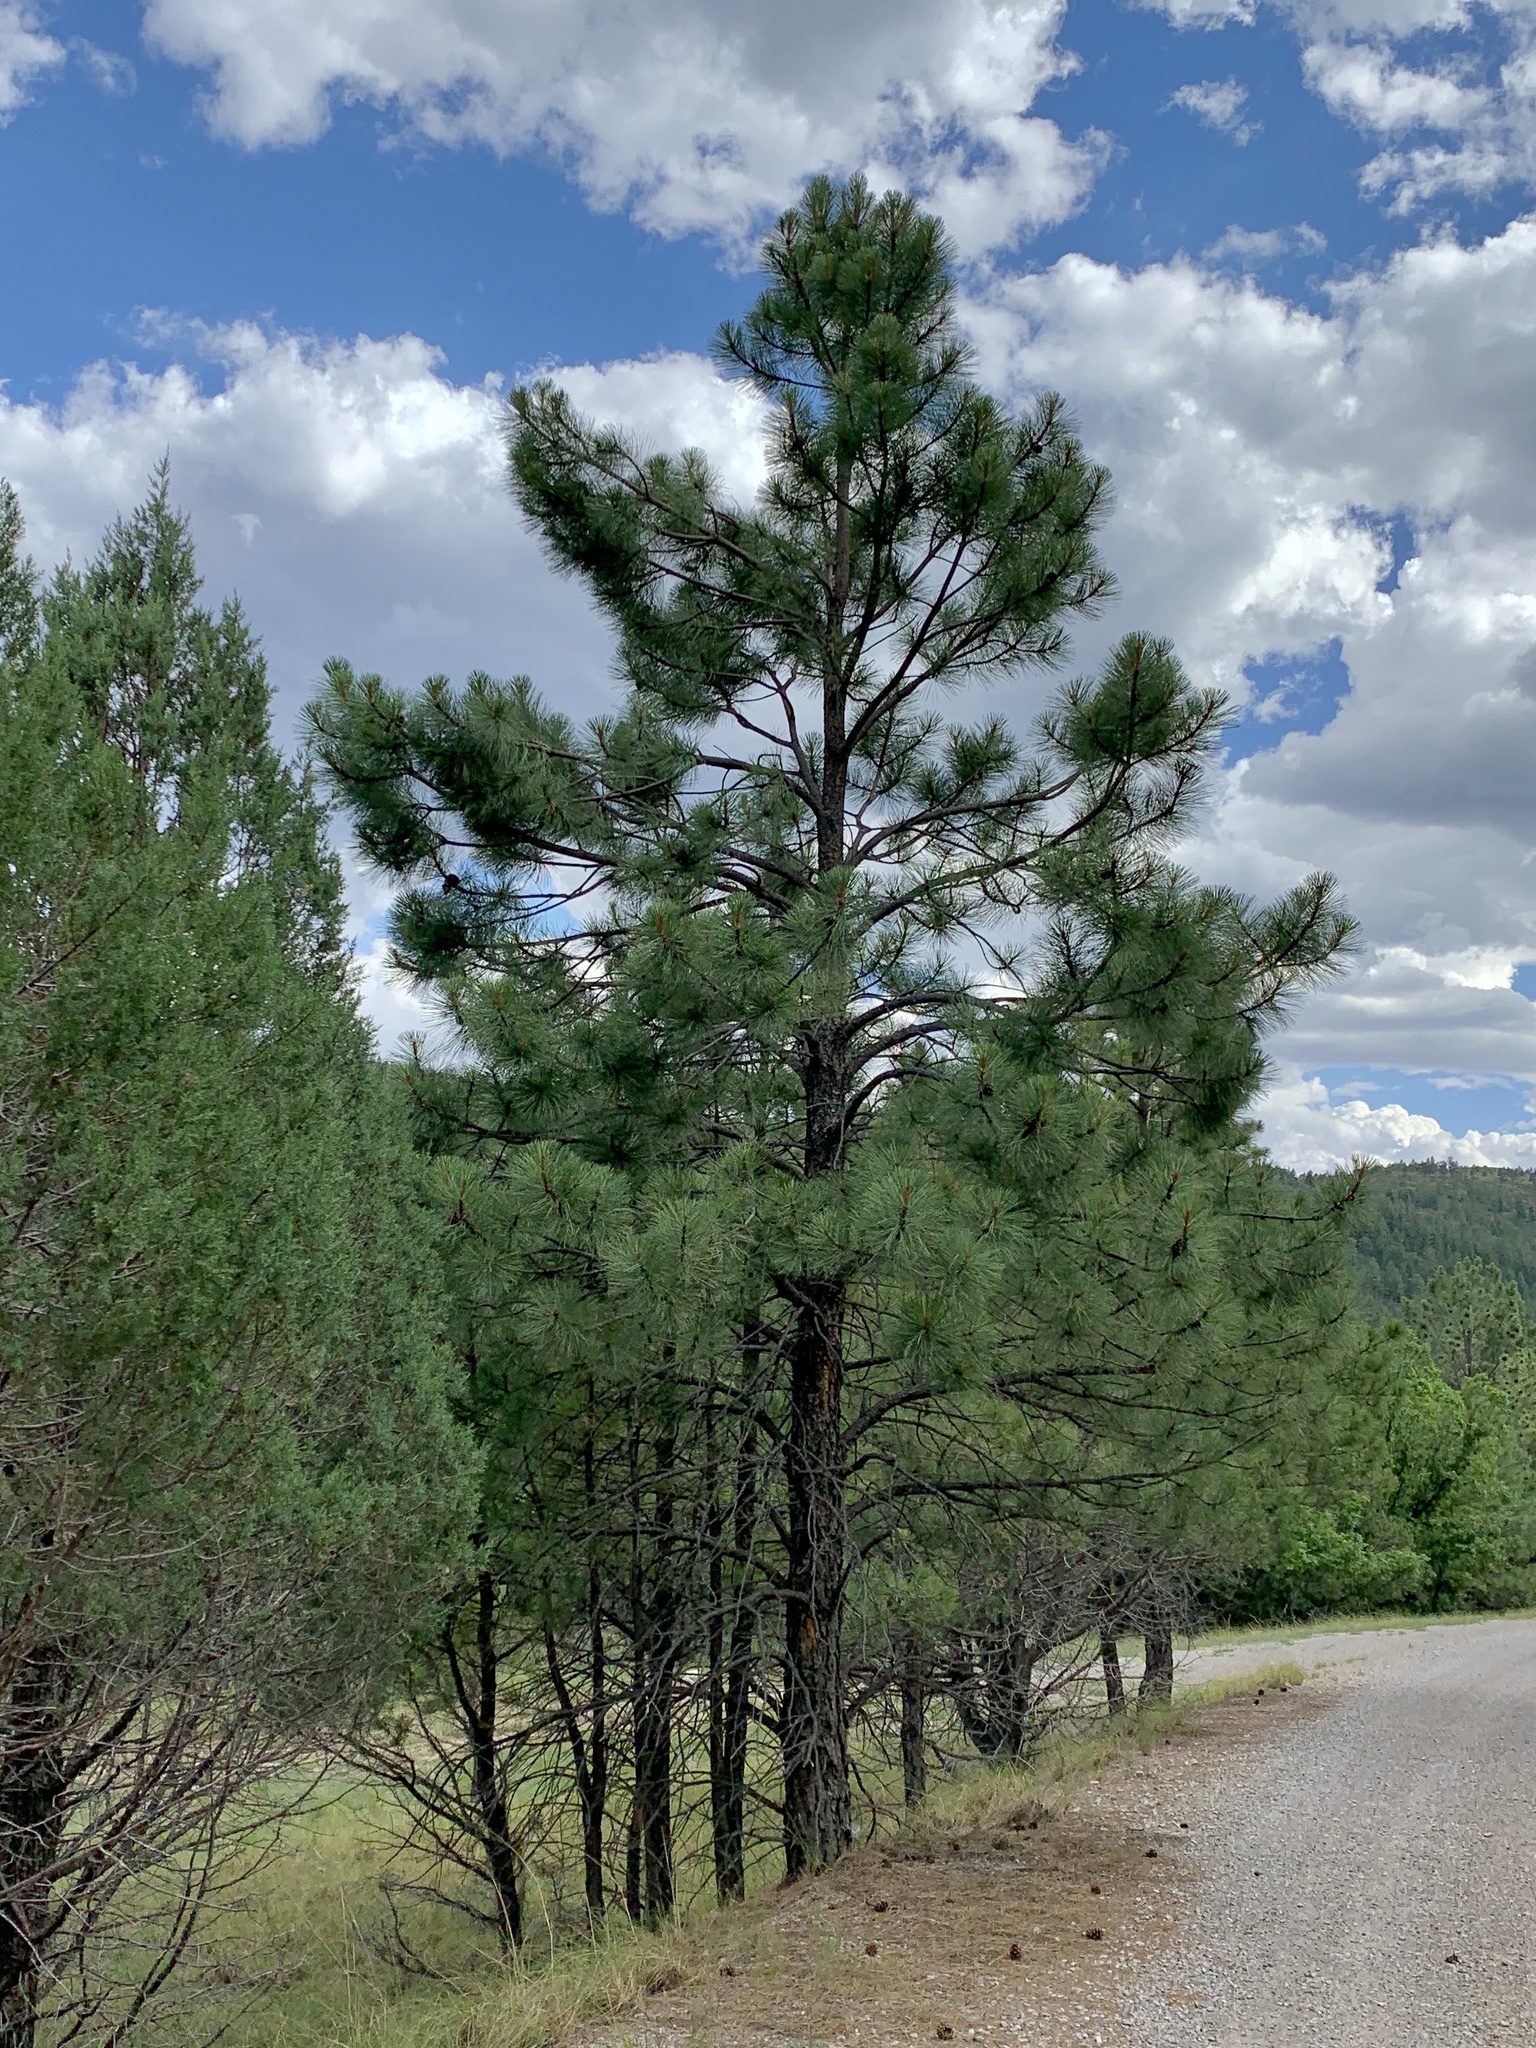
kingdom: Plantae
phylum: Tracheophyta
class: Pinopsida
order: Pinales
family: Pinaceae
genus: Pinus
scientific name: Pinus ponderosa
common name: Western yellow-pine
